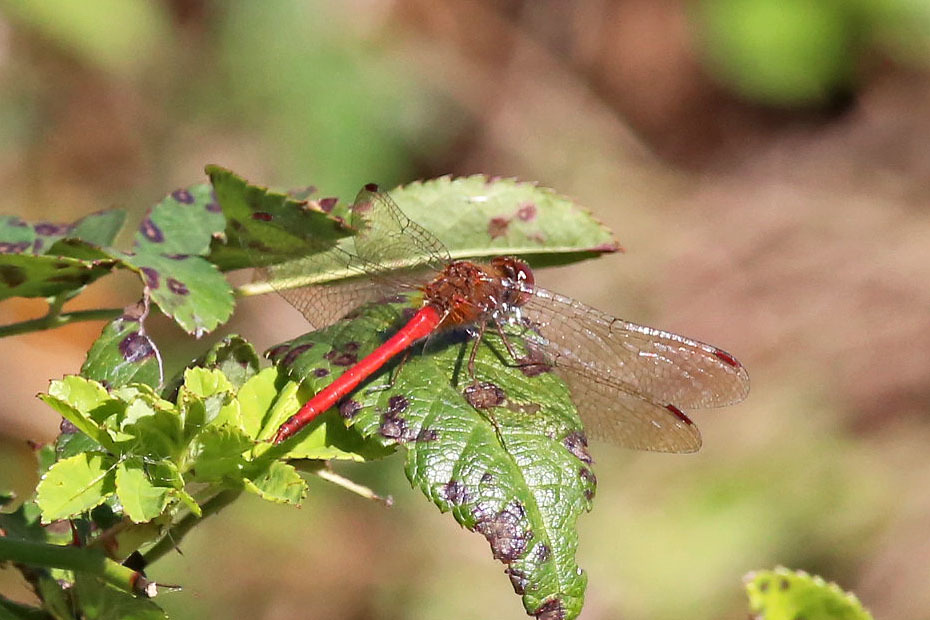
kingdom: Animalia
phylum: Arthropoda
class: Insecta
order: Odonata
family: Libellulidae
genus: Sympetrum
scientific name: Sympetrum vicinum
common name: Autumn meadowhawk
